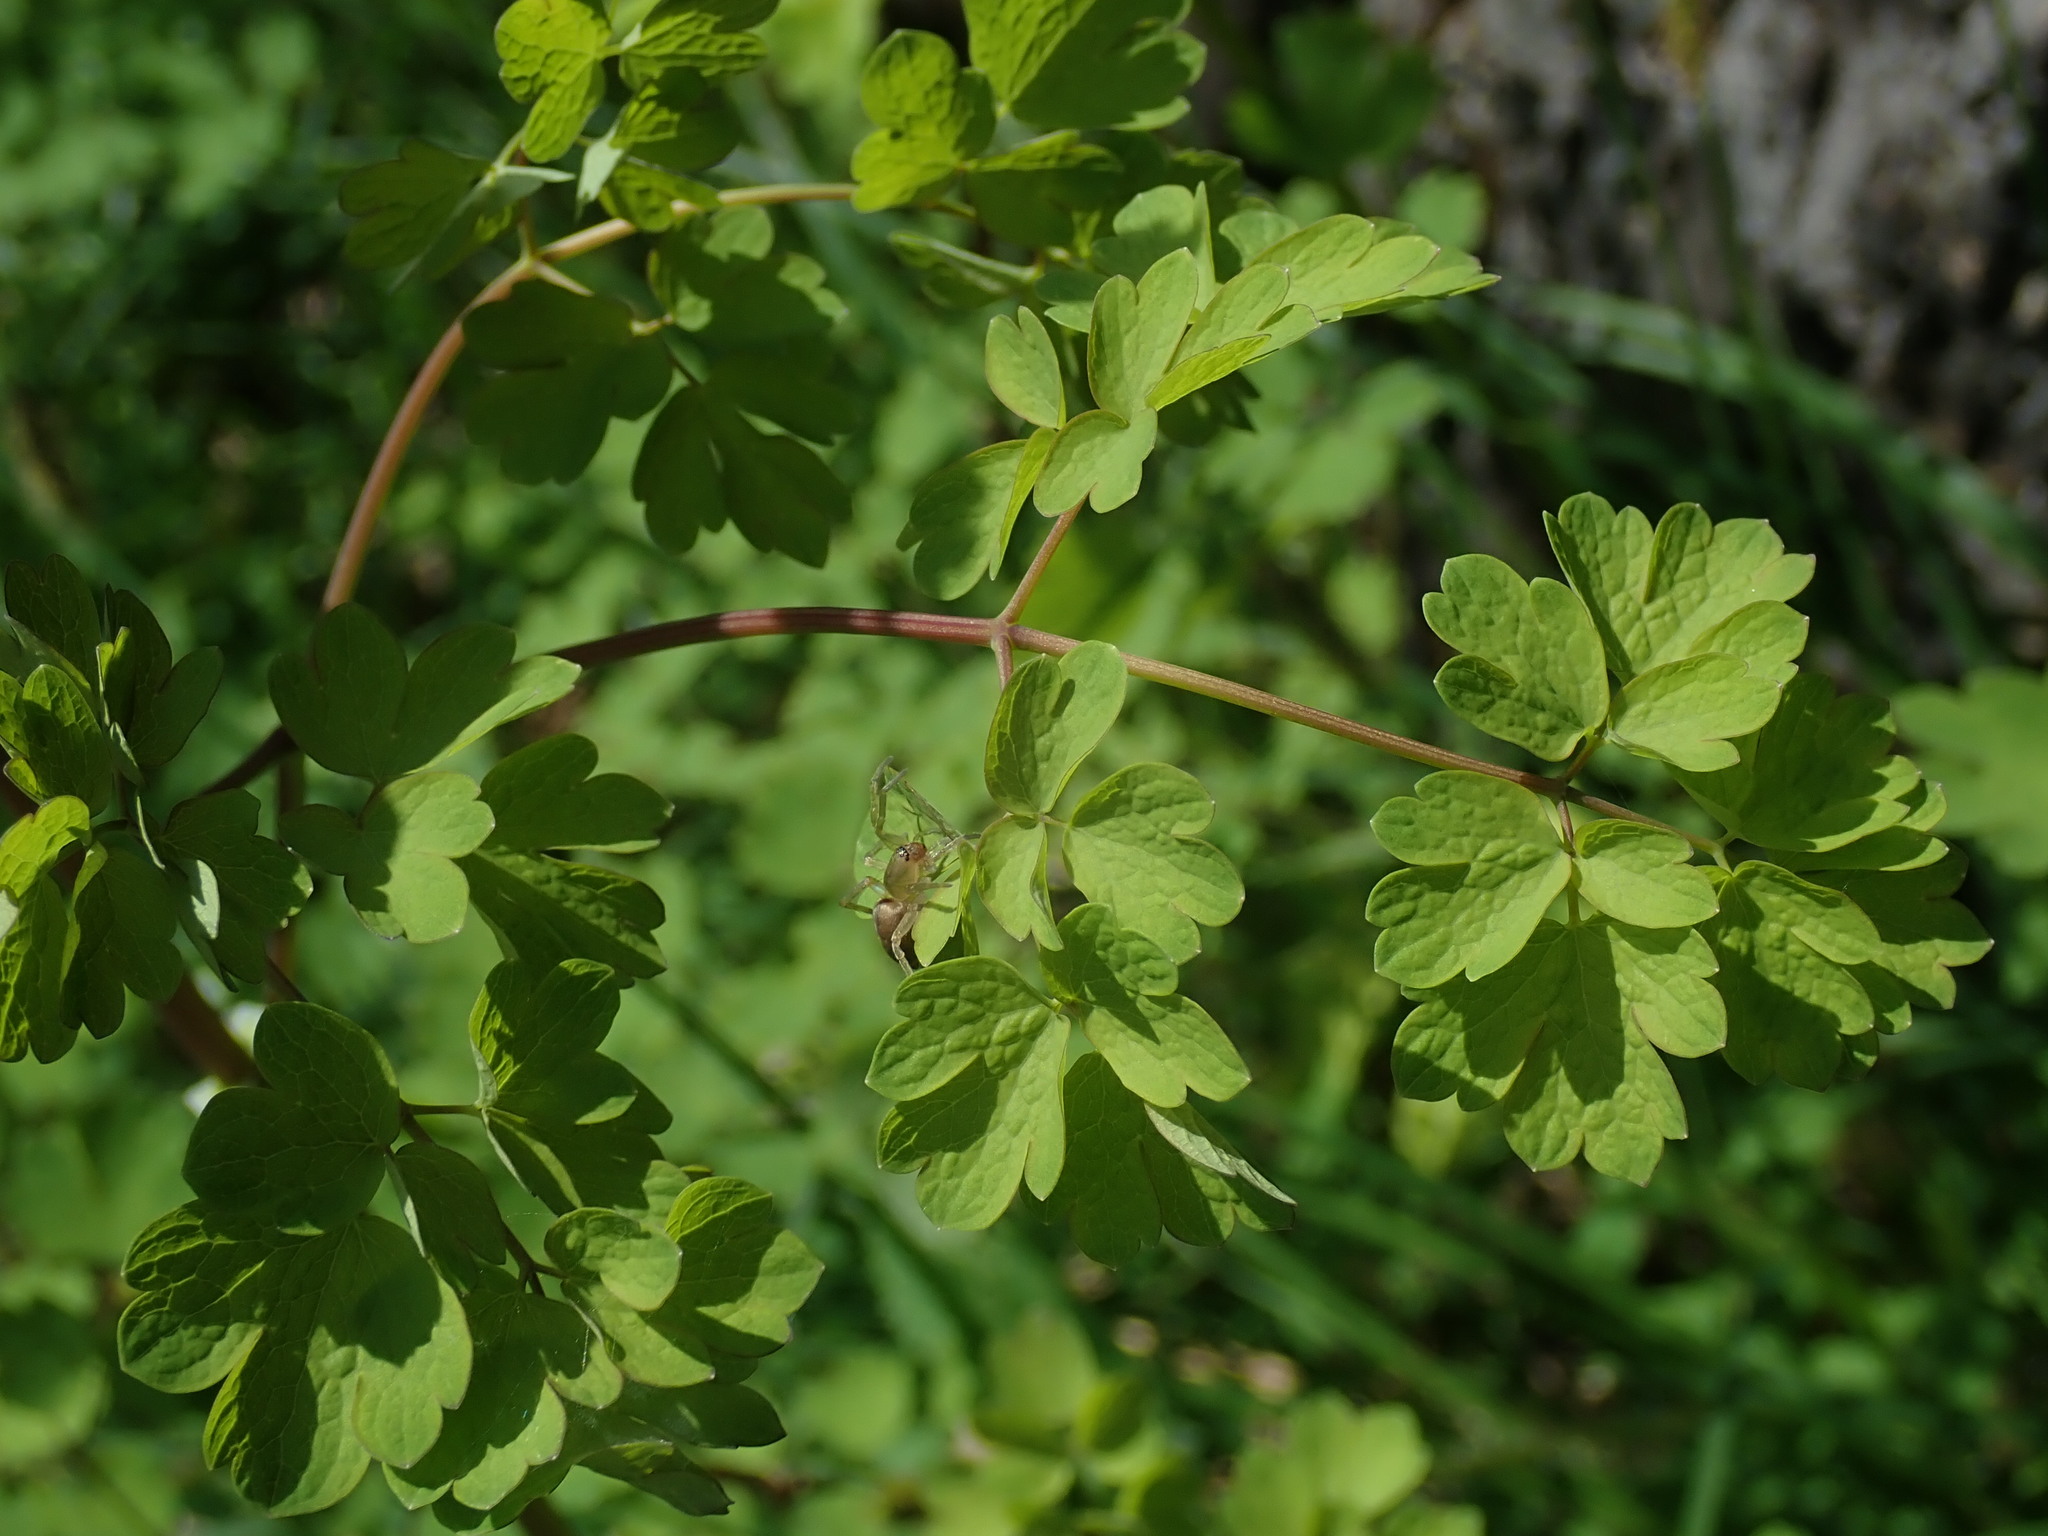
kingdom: Plantae
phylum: Tracheophyta
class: Magnoliopsida
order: Ranunculales
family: Ranunculaceae
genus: Thalictrum
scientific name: Thalictrum occidentale
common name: Western meadow-rue
